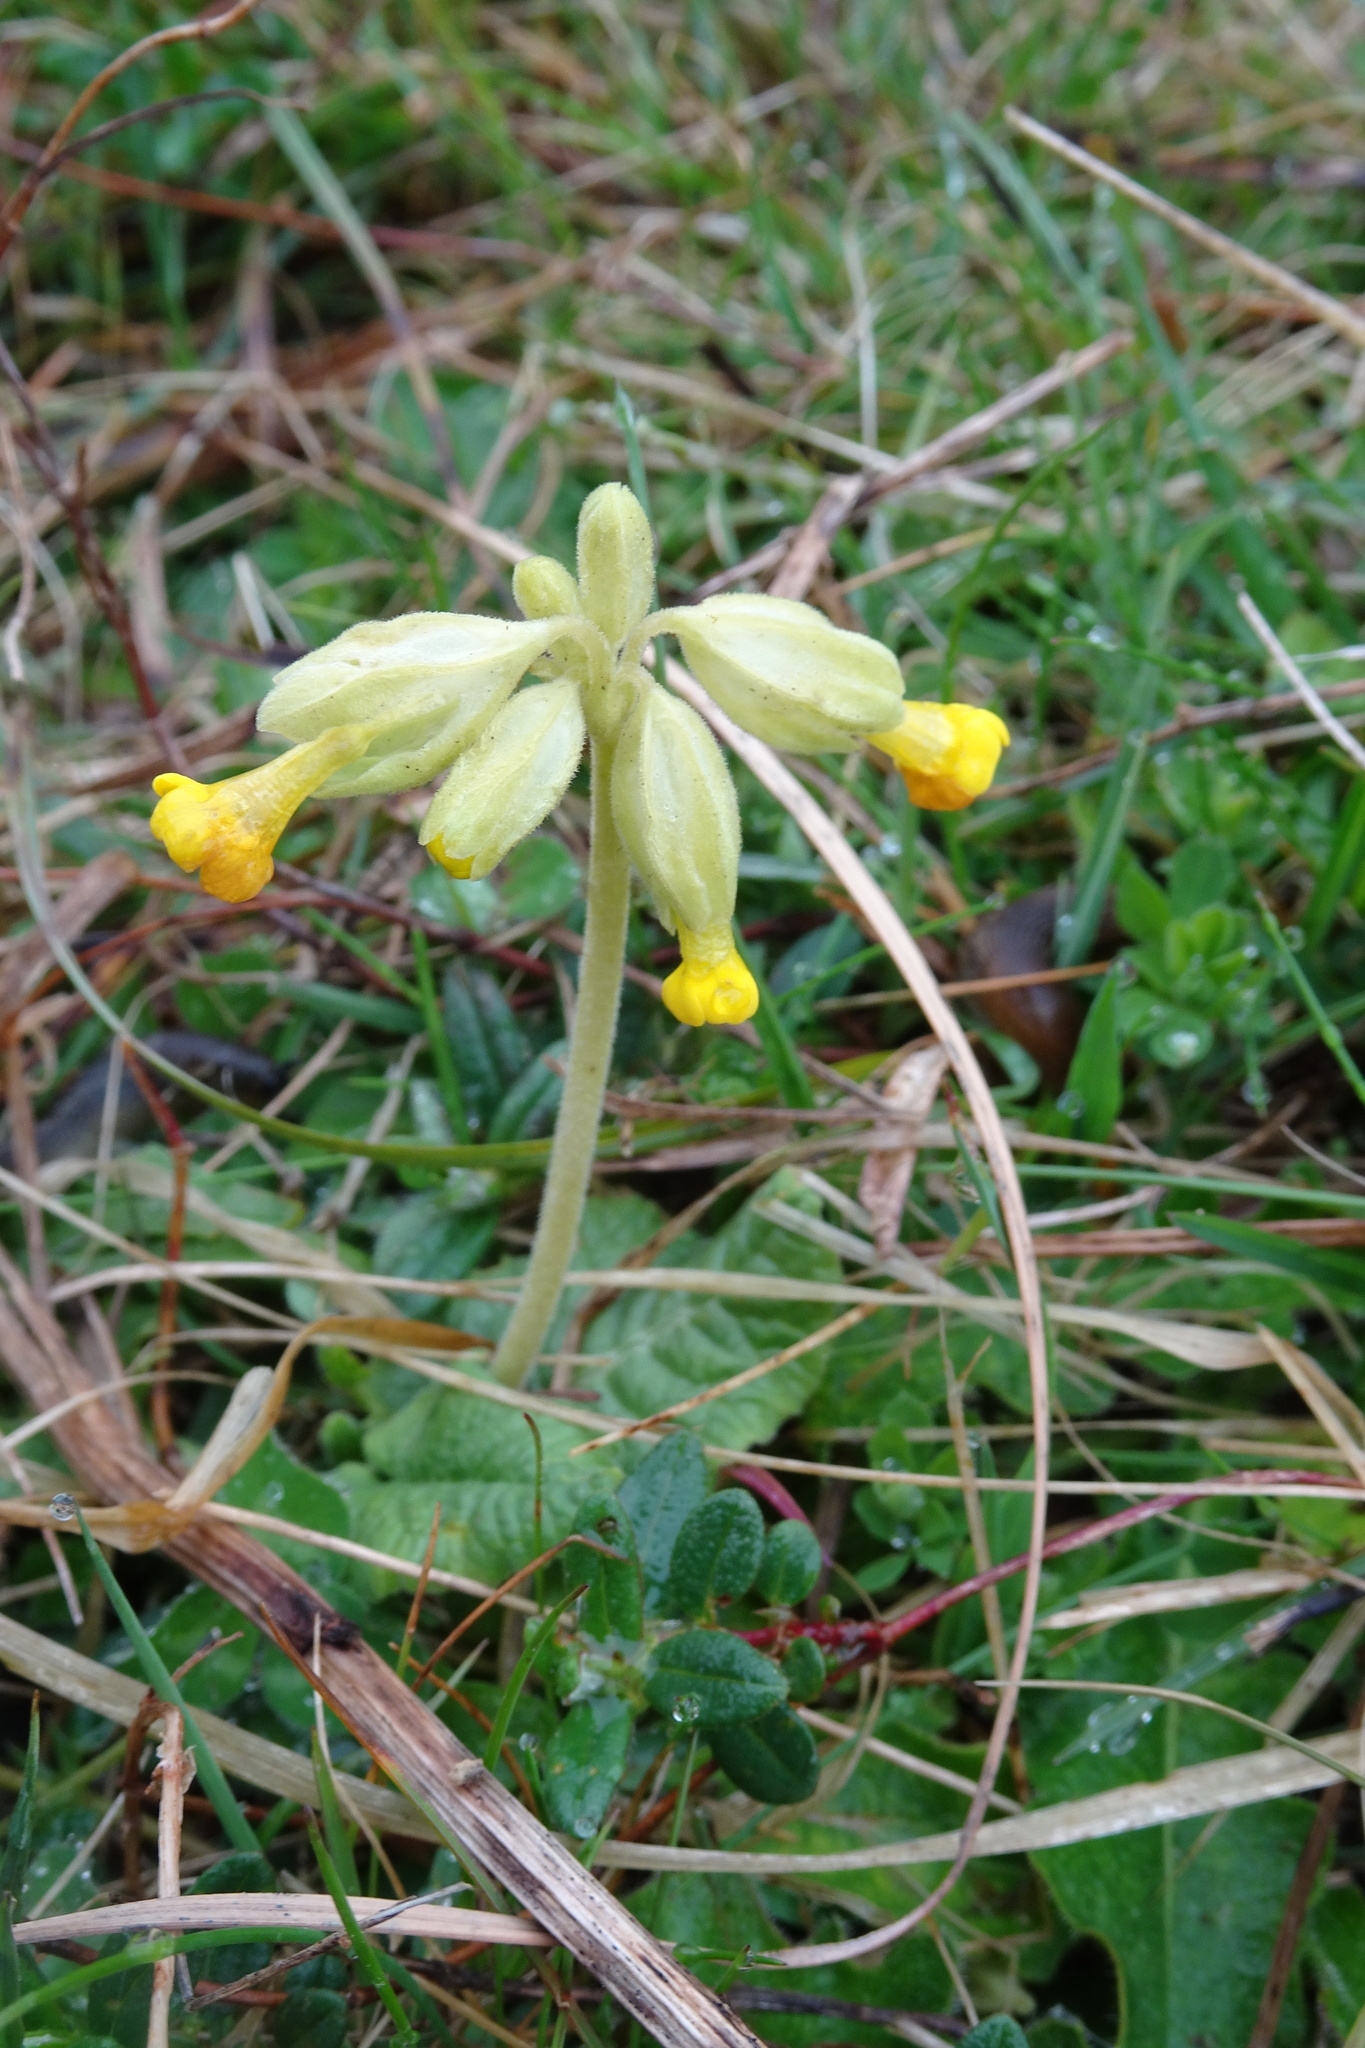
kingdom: Plantae
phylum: Tracheophyta
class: Magnoliopsida
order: Ericales
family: Primulaceae
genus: Primula
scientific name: Primula veris
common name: Cowslip
